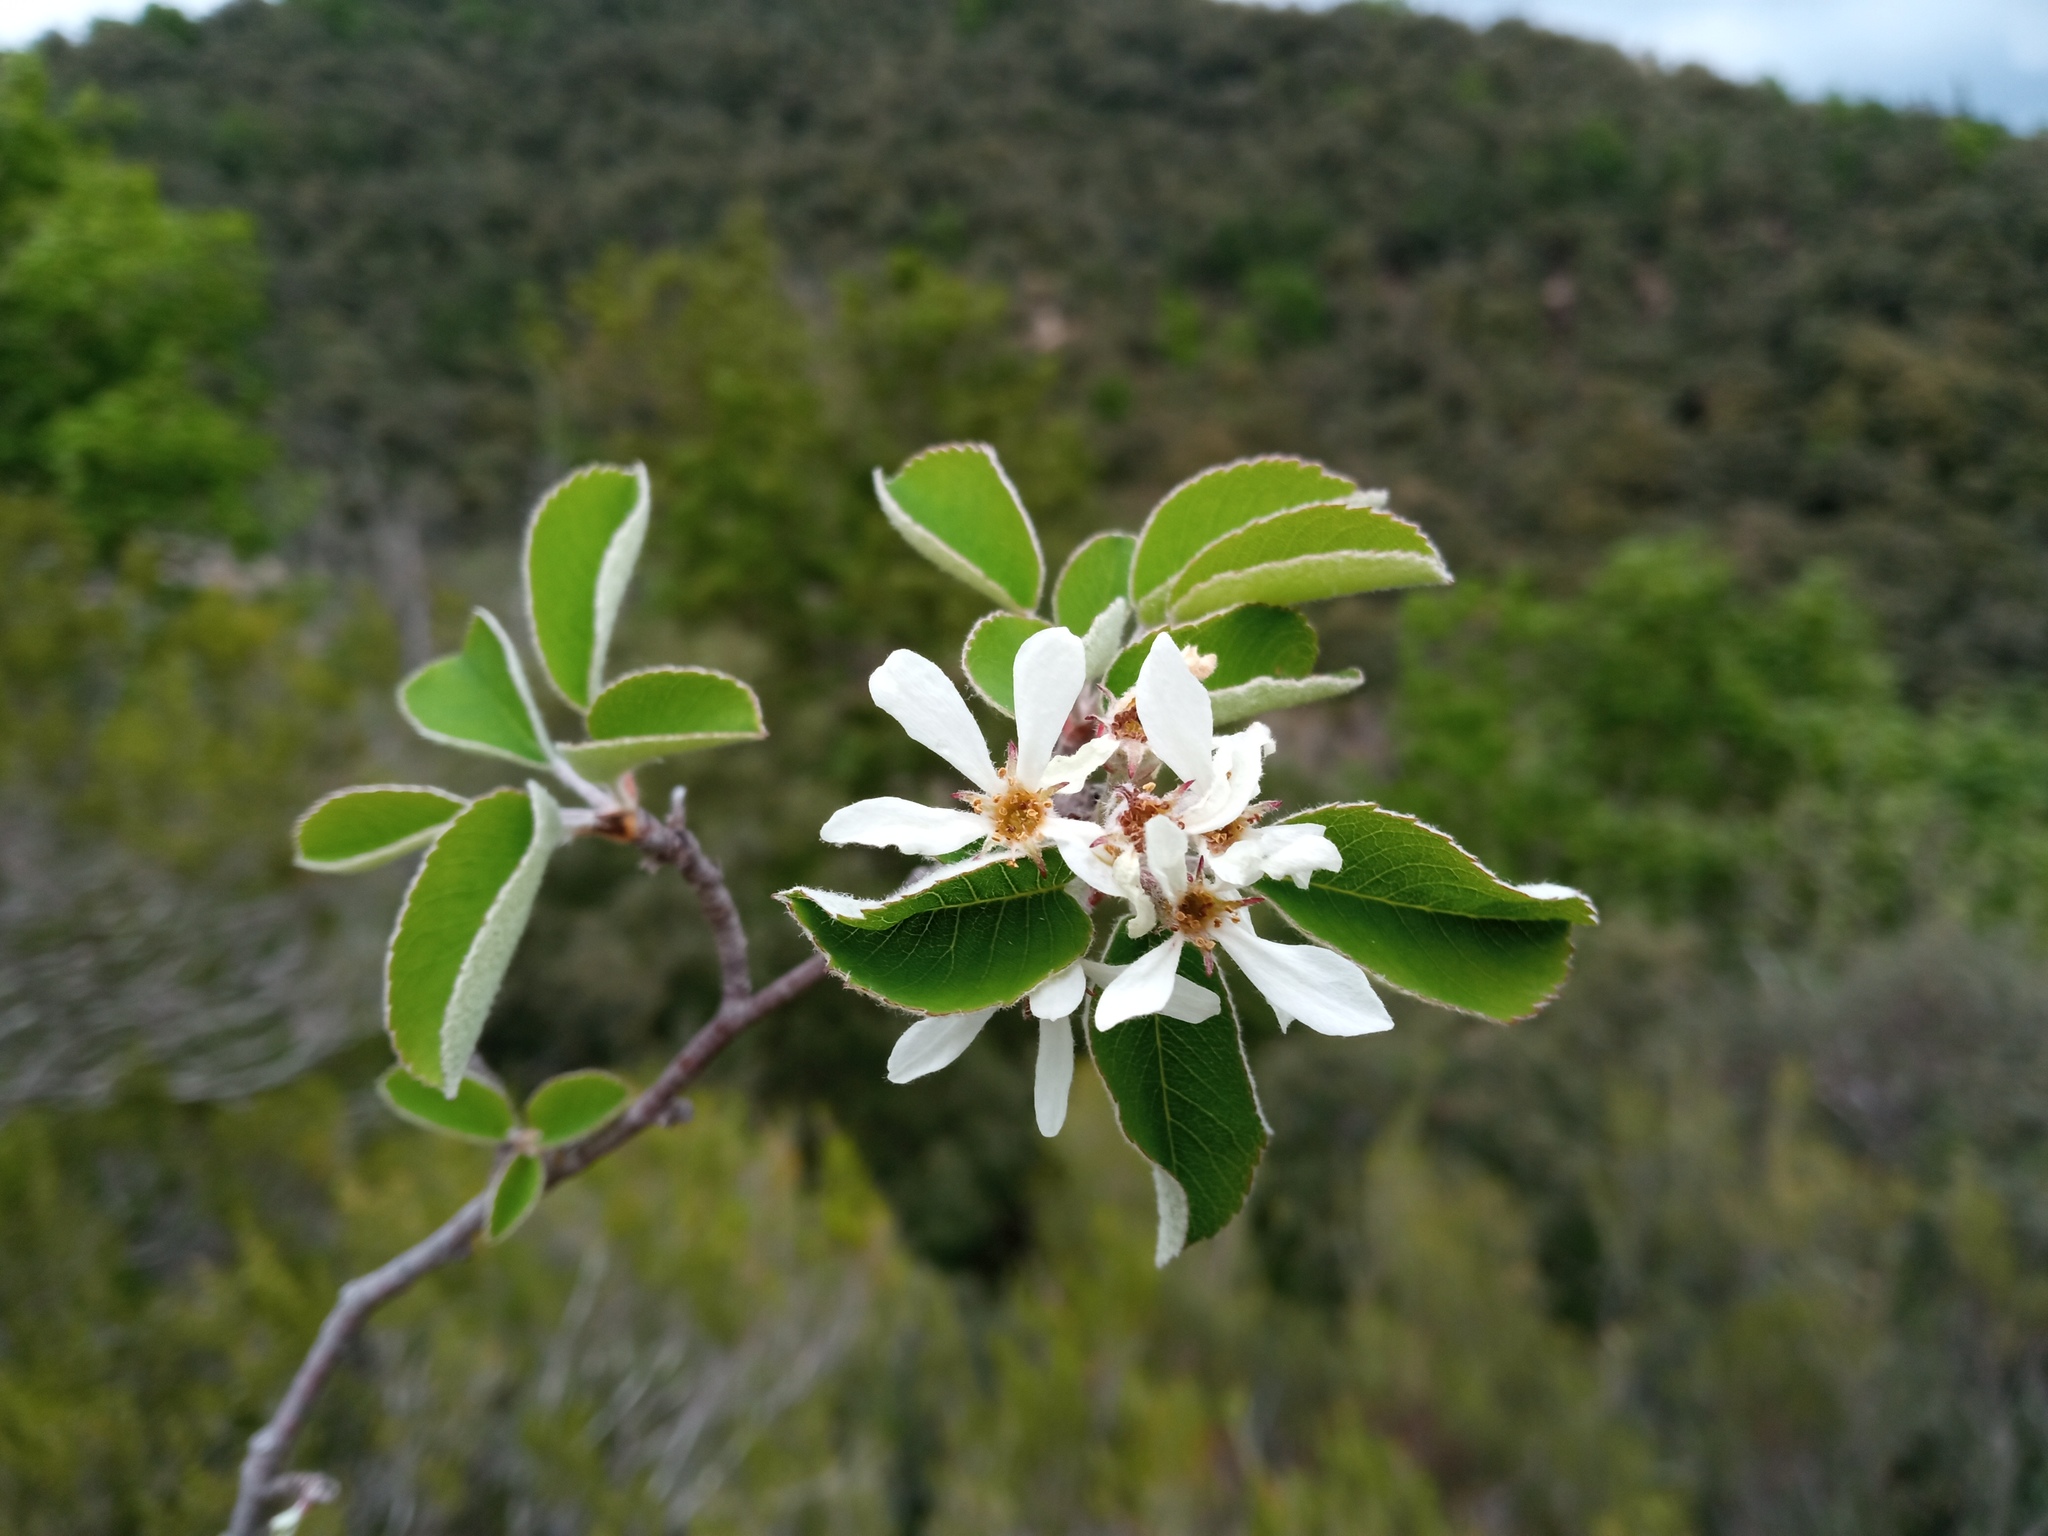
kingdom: Plantae
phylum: Tracheophyta
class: Magnoliopsida
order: Rosales
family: Rosaceae
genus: Amelanchier
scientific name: Amelanchier ovalis
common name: Serviceberry
